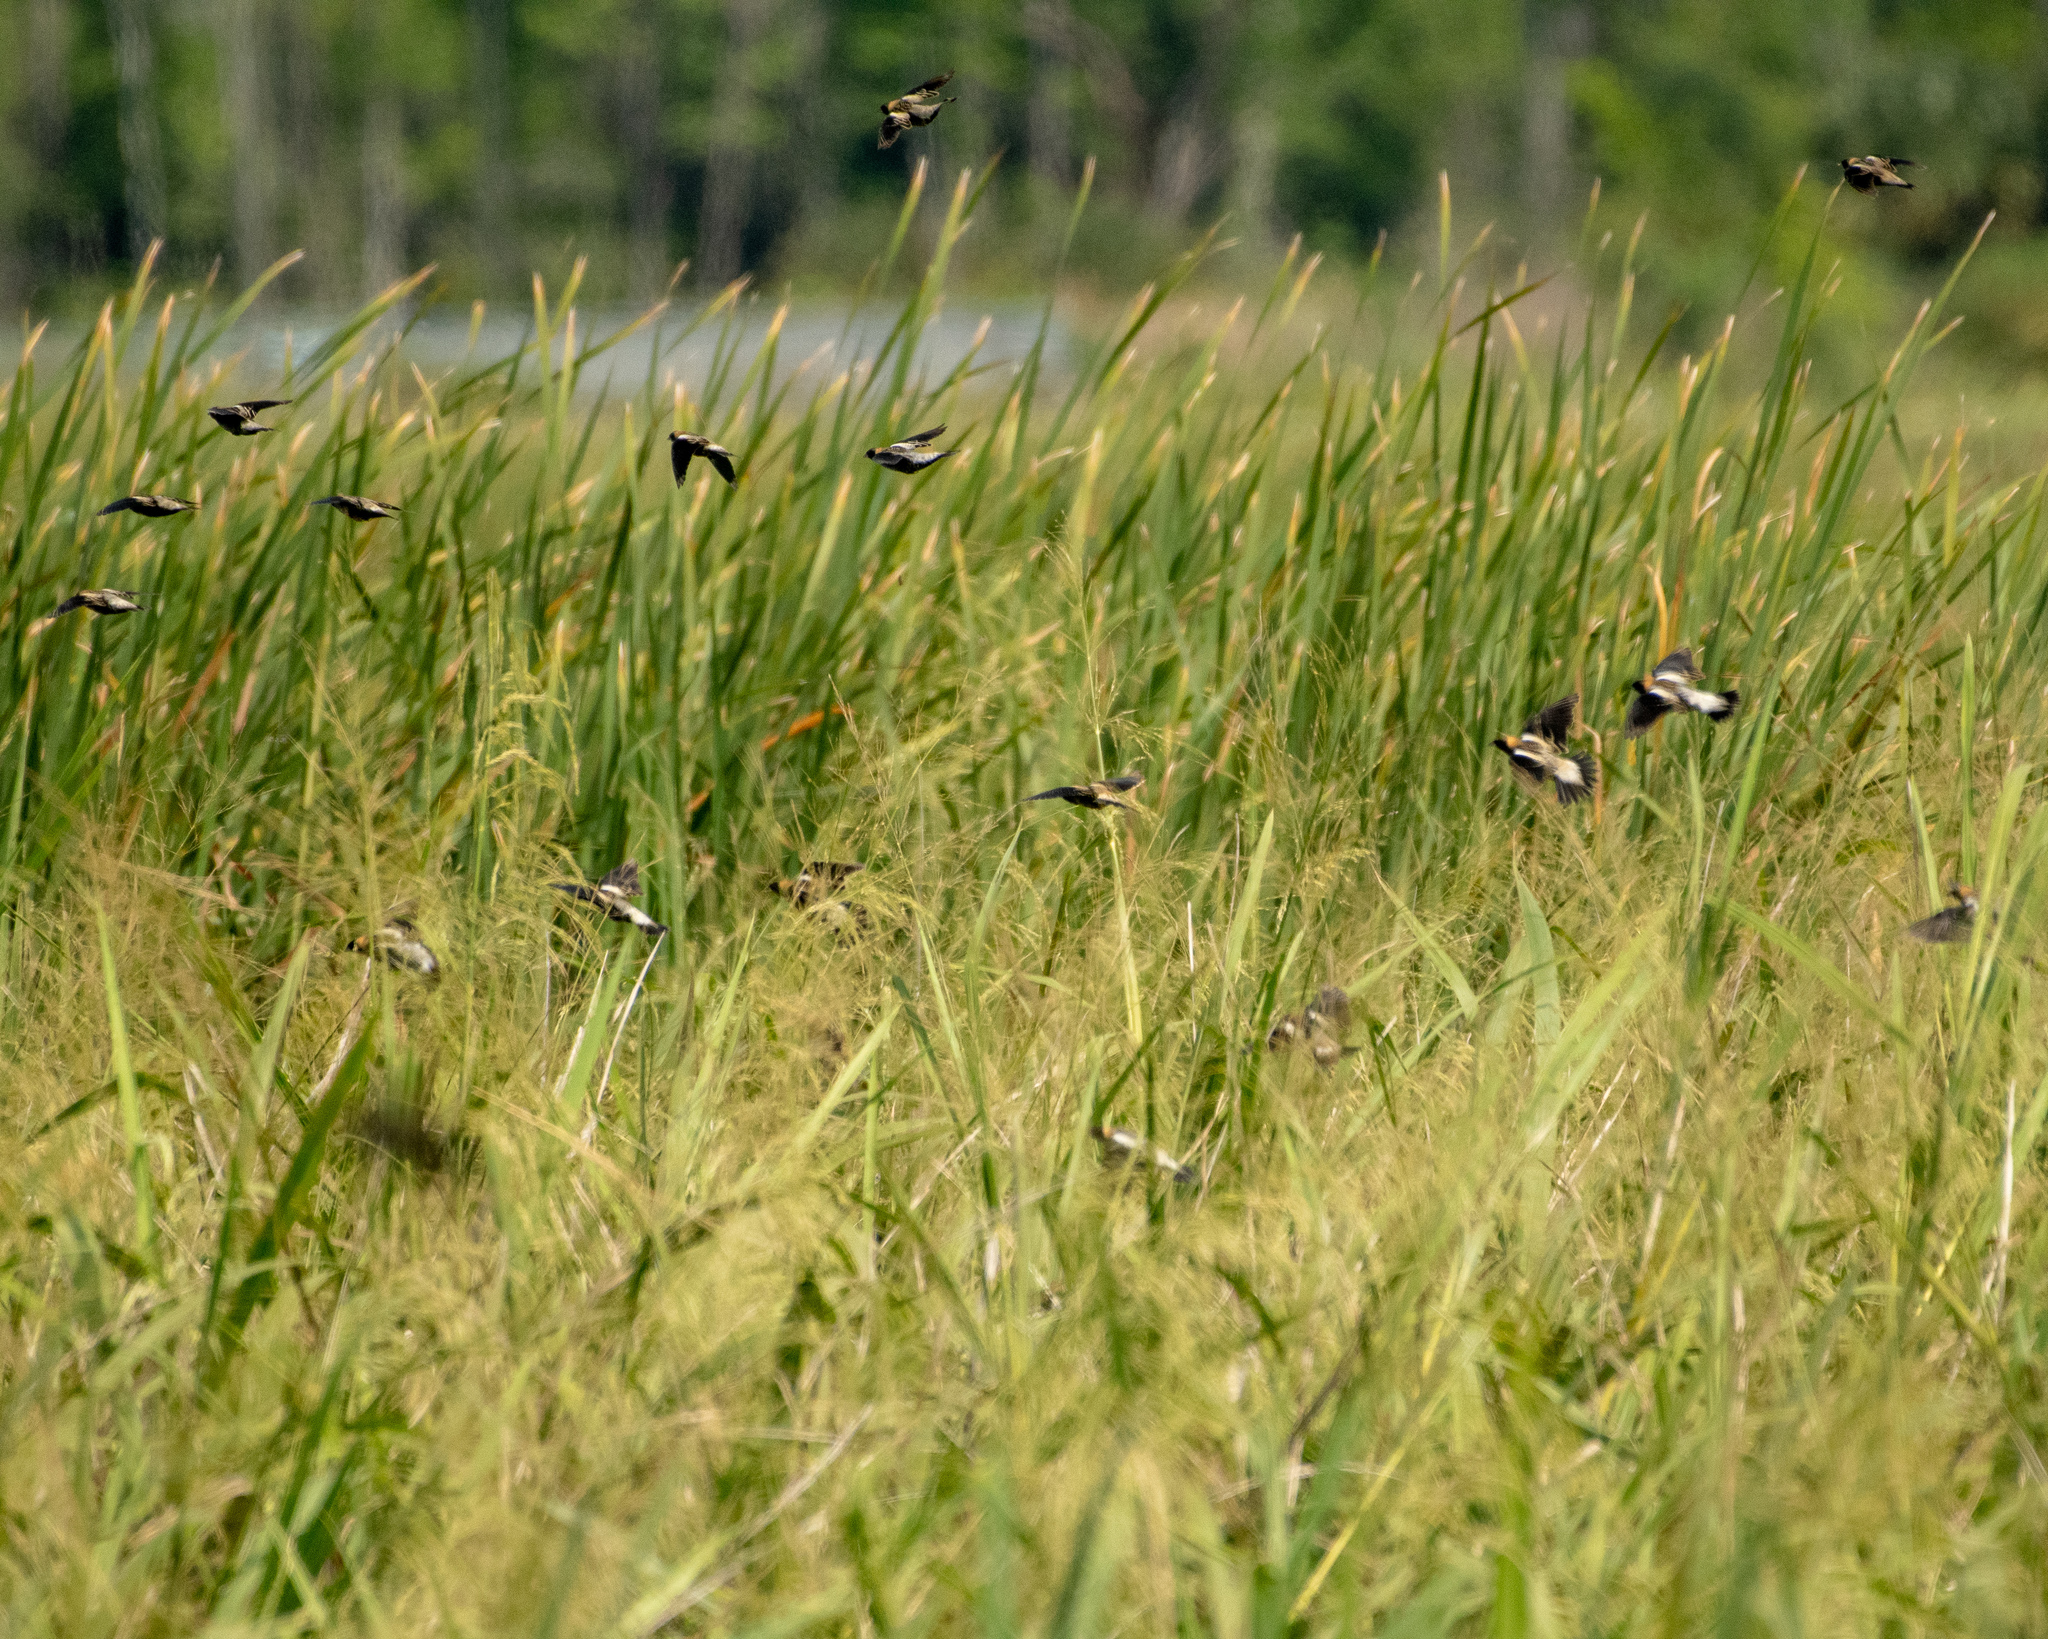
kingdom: Animalia
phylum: Chordata
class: Aves
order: Passeriformes
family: Icteridae
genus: Dolichonyx
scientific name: Dolichonyx oryzivorus
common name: Bobolink
